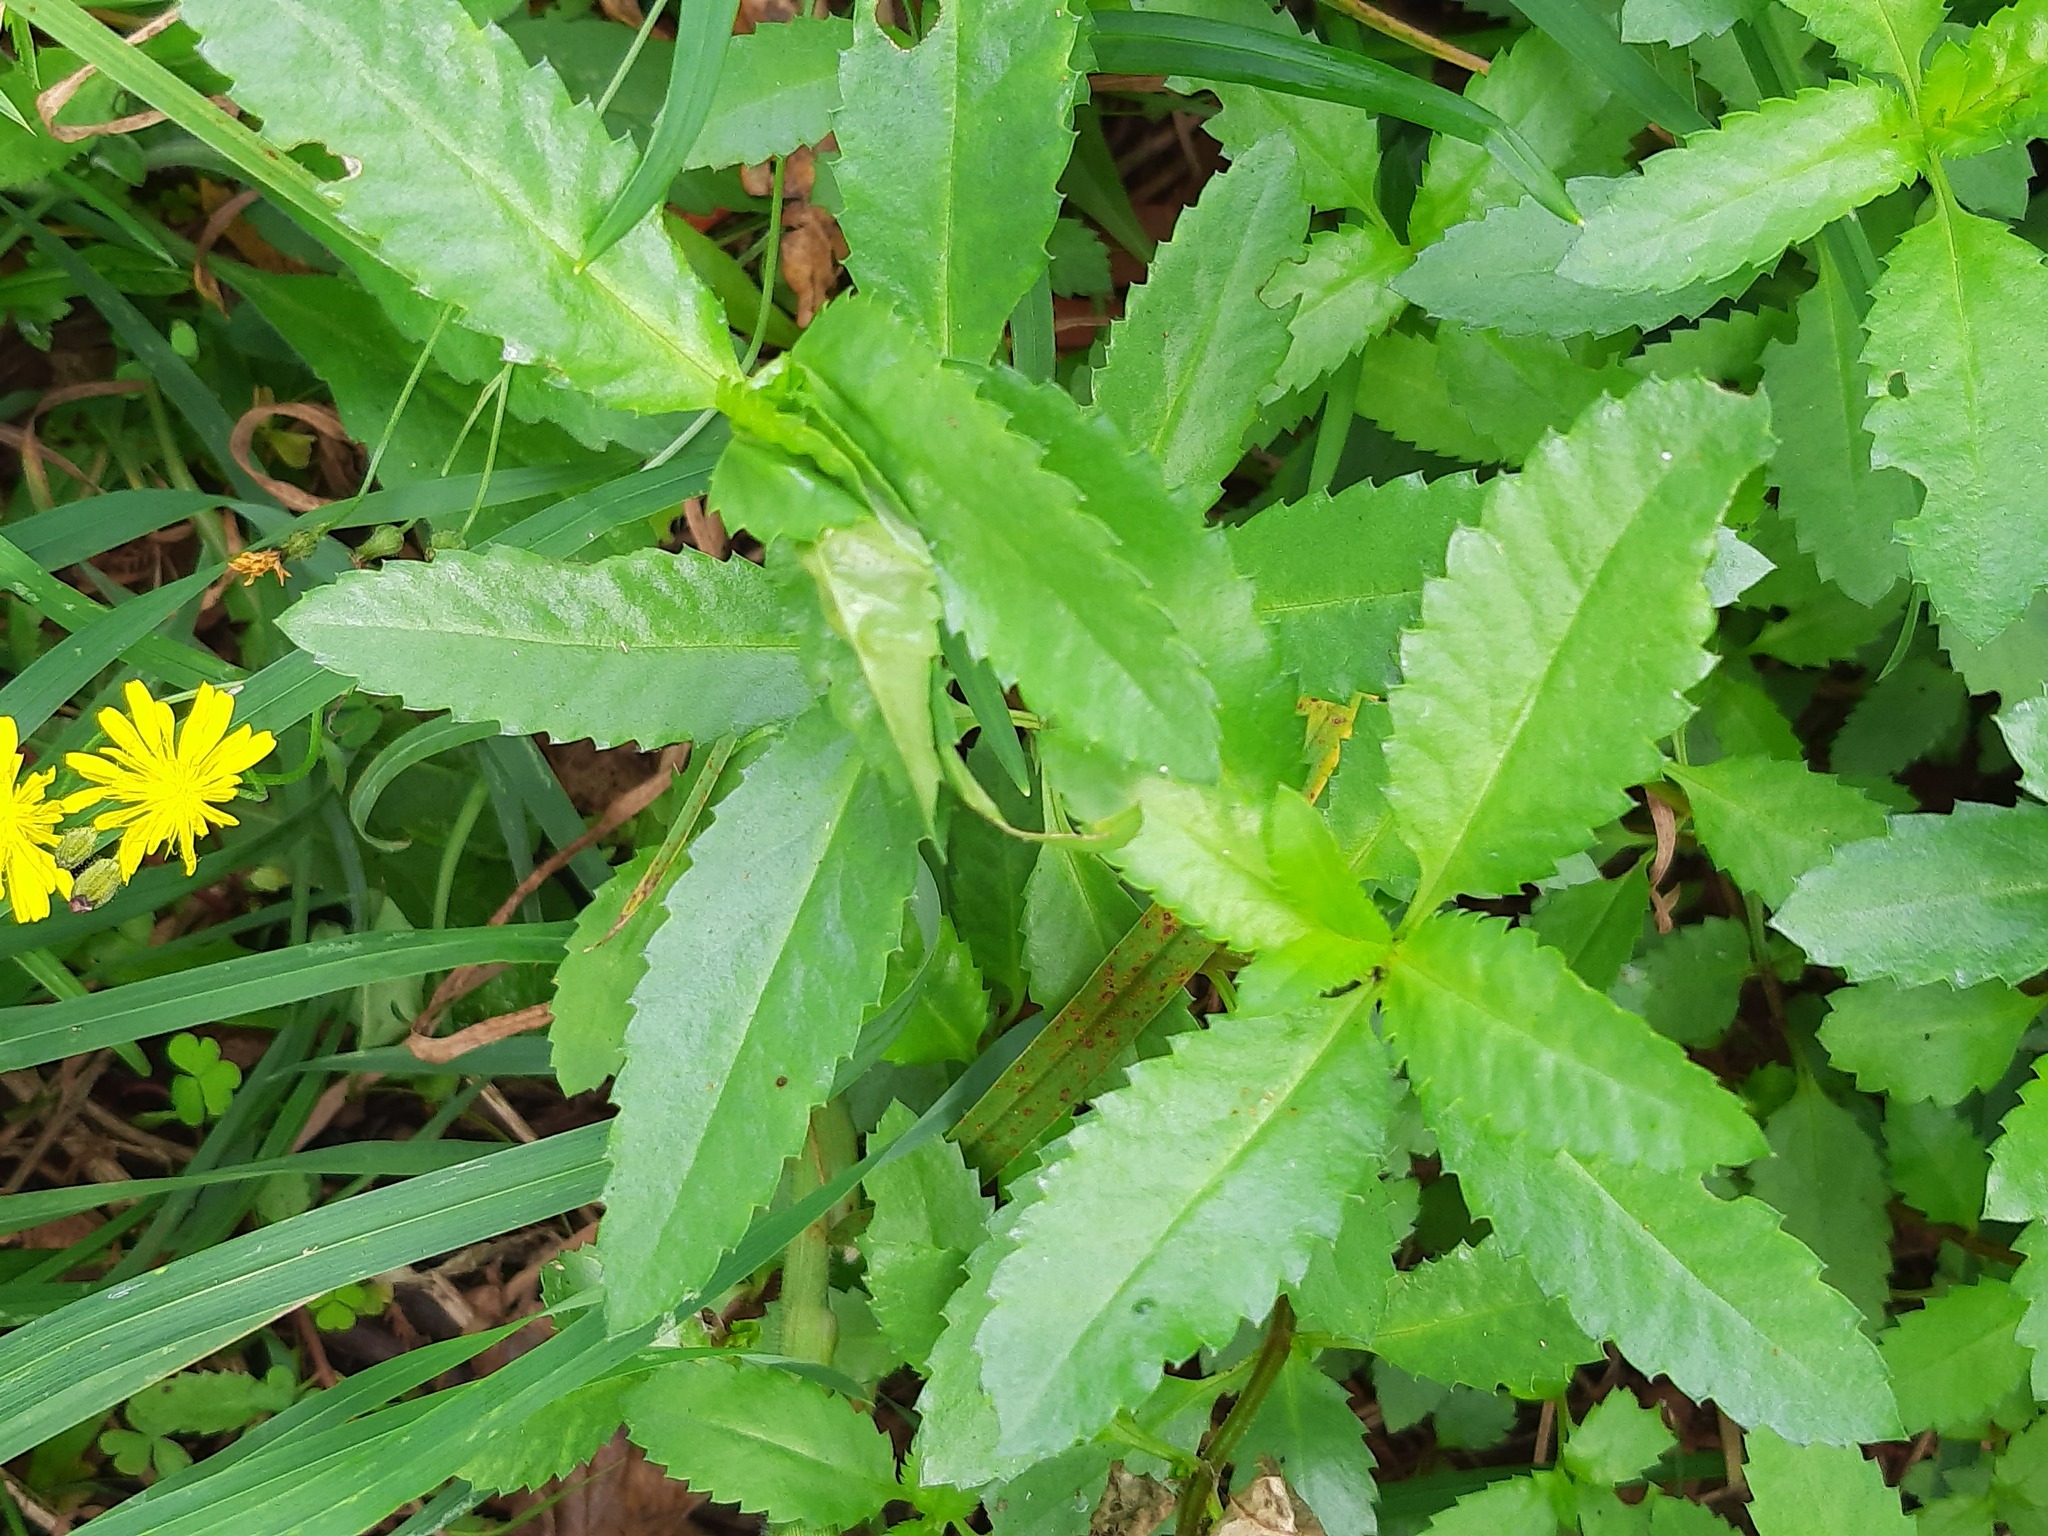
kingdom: Plantae
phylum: Tracheophyta
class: Magnoliopsida
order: Saxifragales
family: Haloragaceae
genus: Haloragis
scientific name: Haloragis erecta
